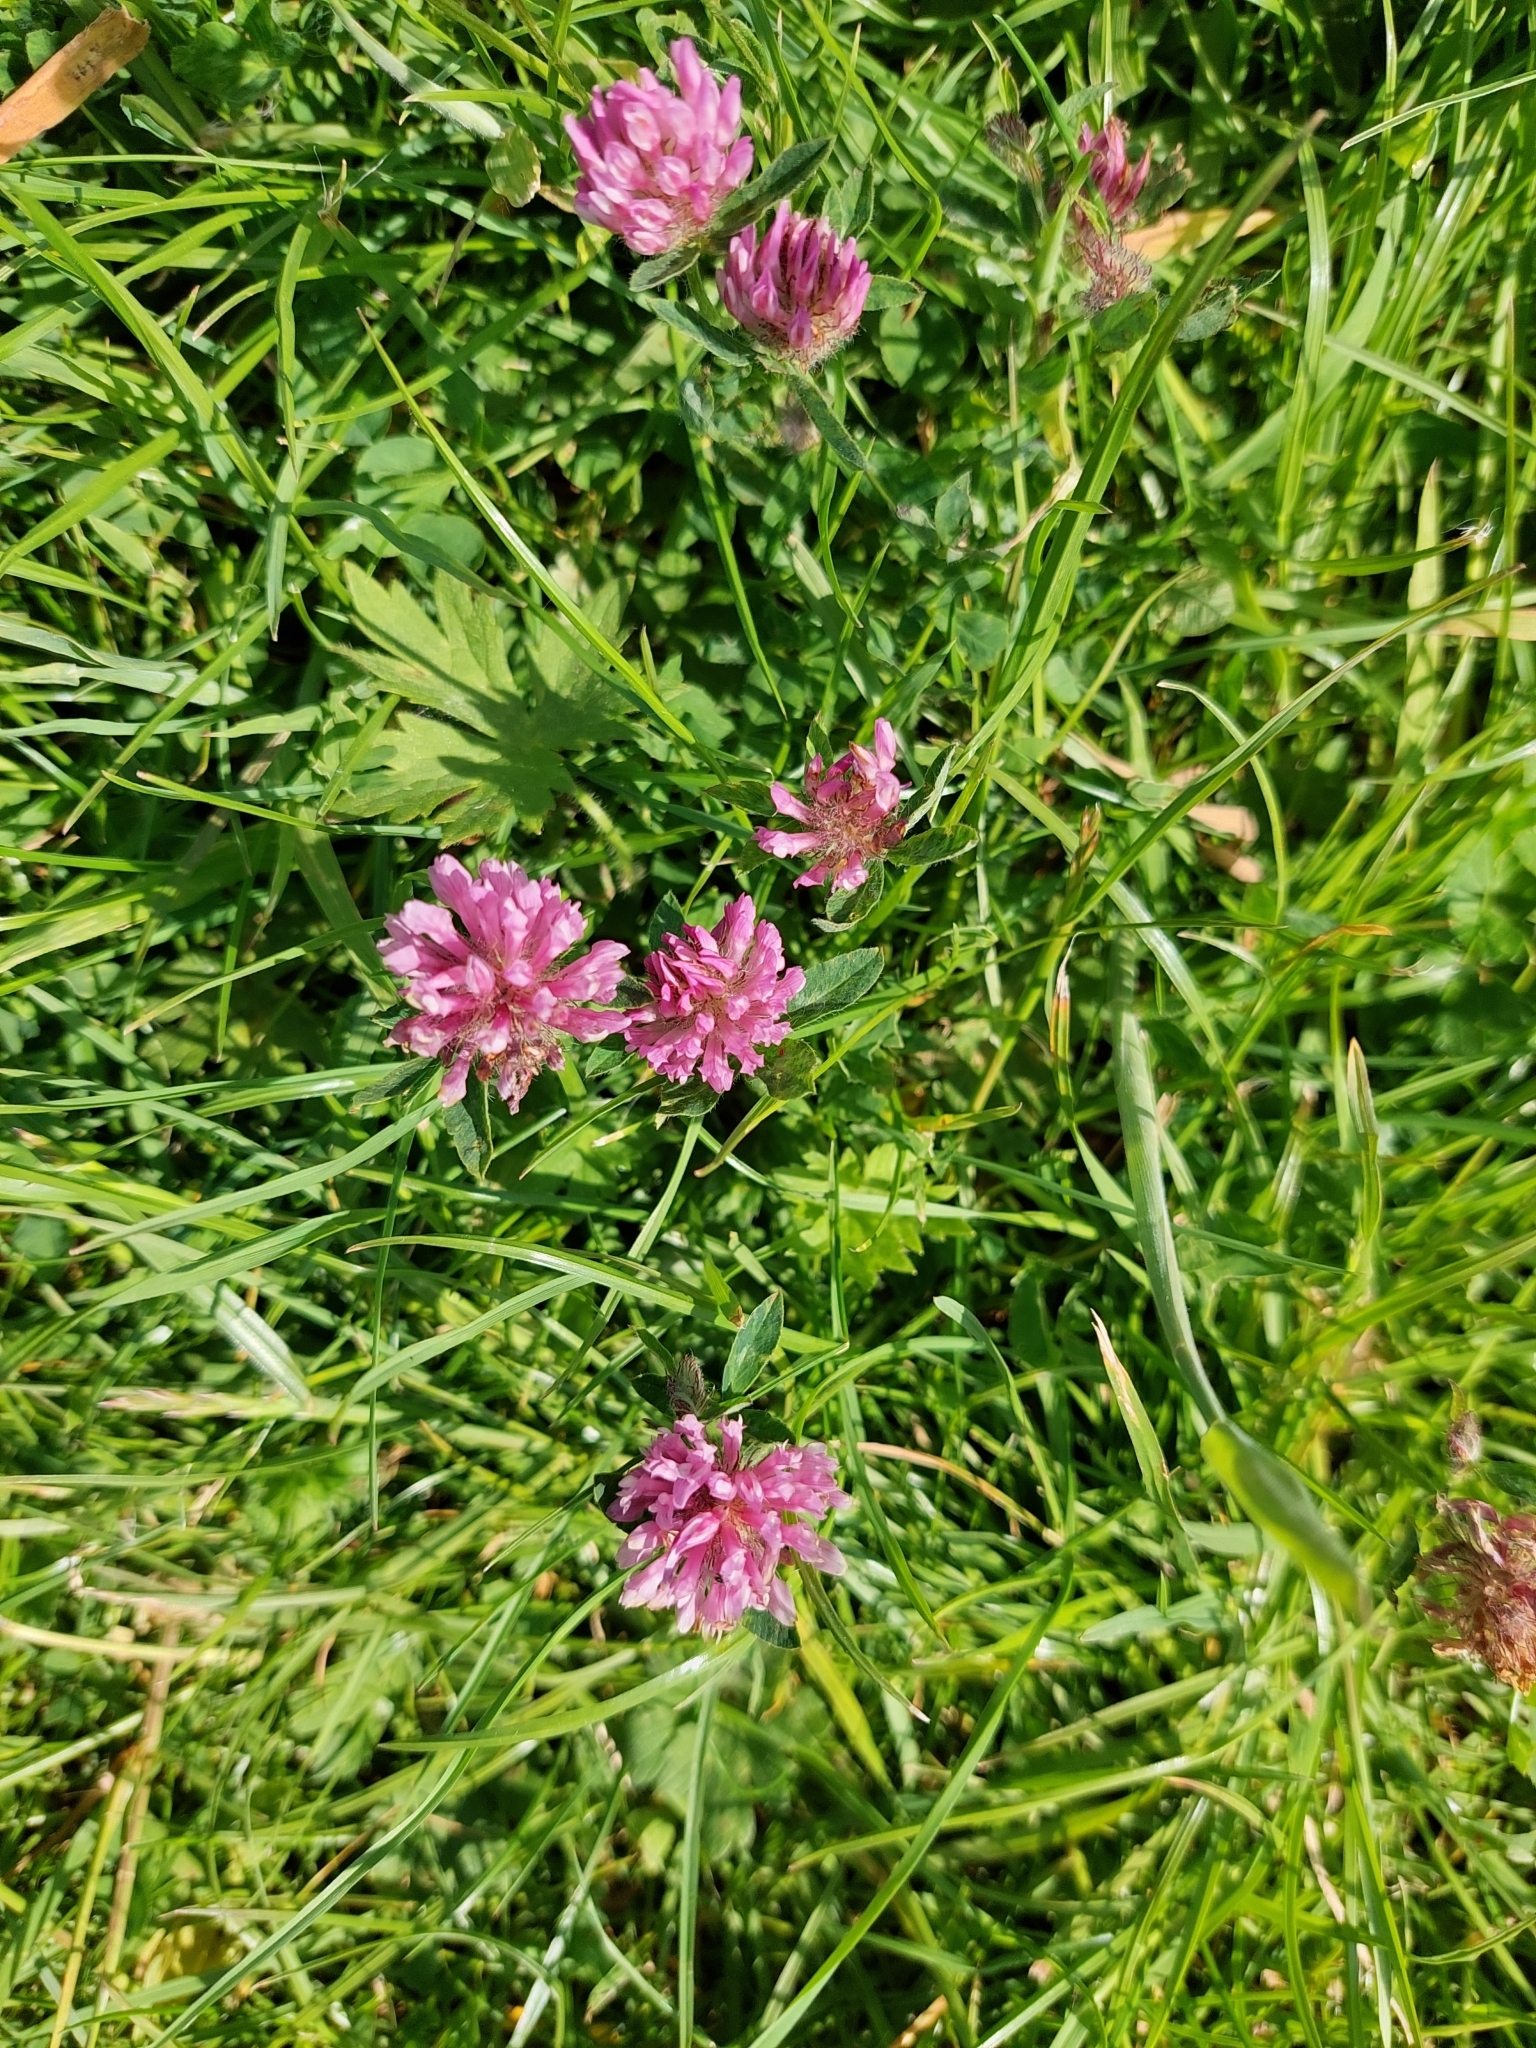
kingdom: Plantae
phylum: Tracheophyta
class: Magnoliopsida
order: Fabales
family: Fabaceae
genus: Trifolium
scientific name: Trifolium pratense
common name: Red clover
